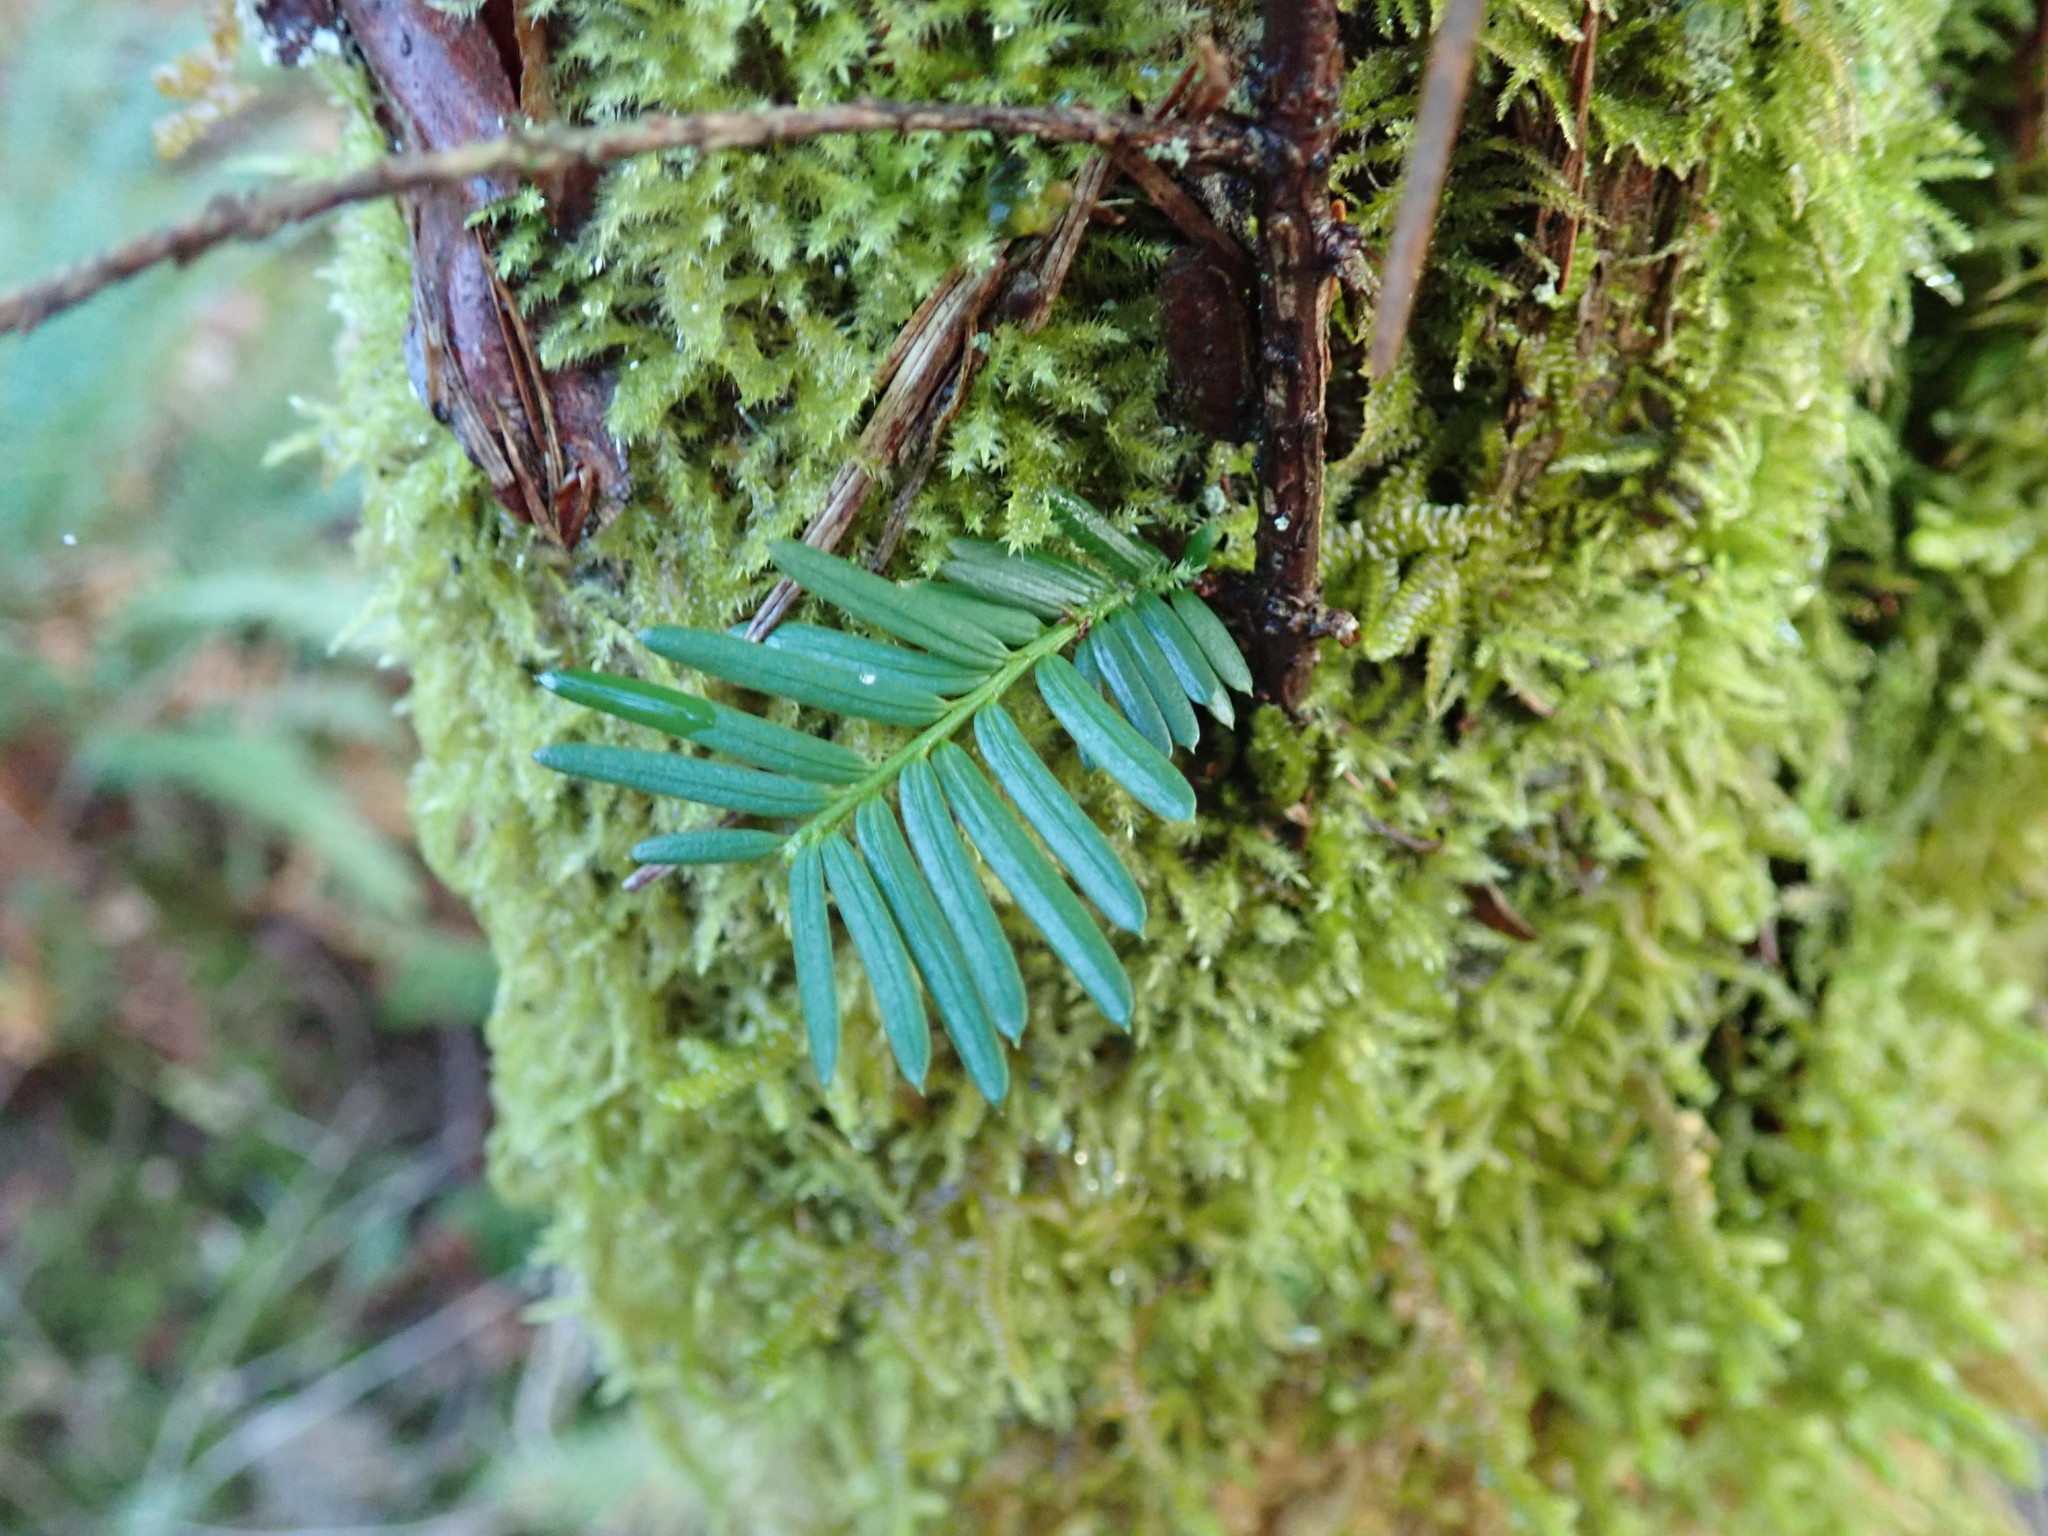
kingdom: Plantae
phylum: Tracheophyta
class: Pinopsida
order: Pinales
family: Taxaceae
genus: Taxus
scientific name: Taxus brevifolia
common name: Pacific yew
